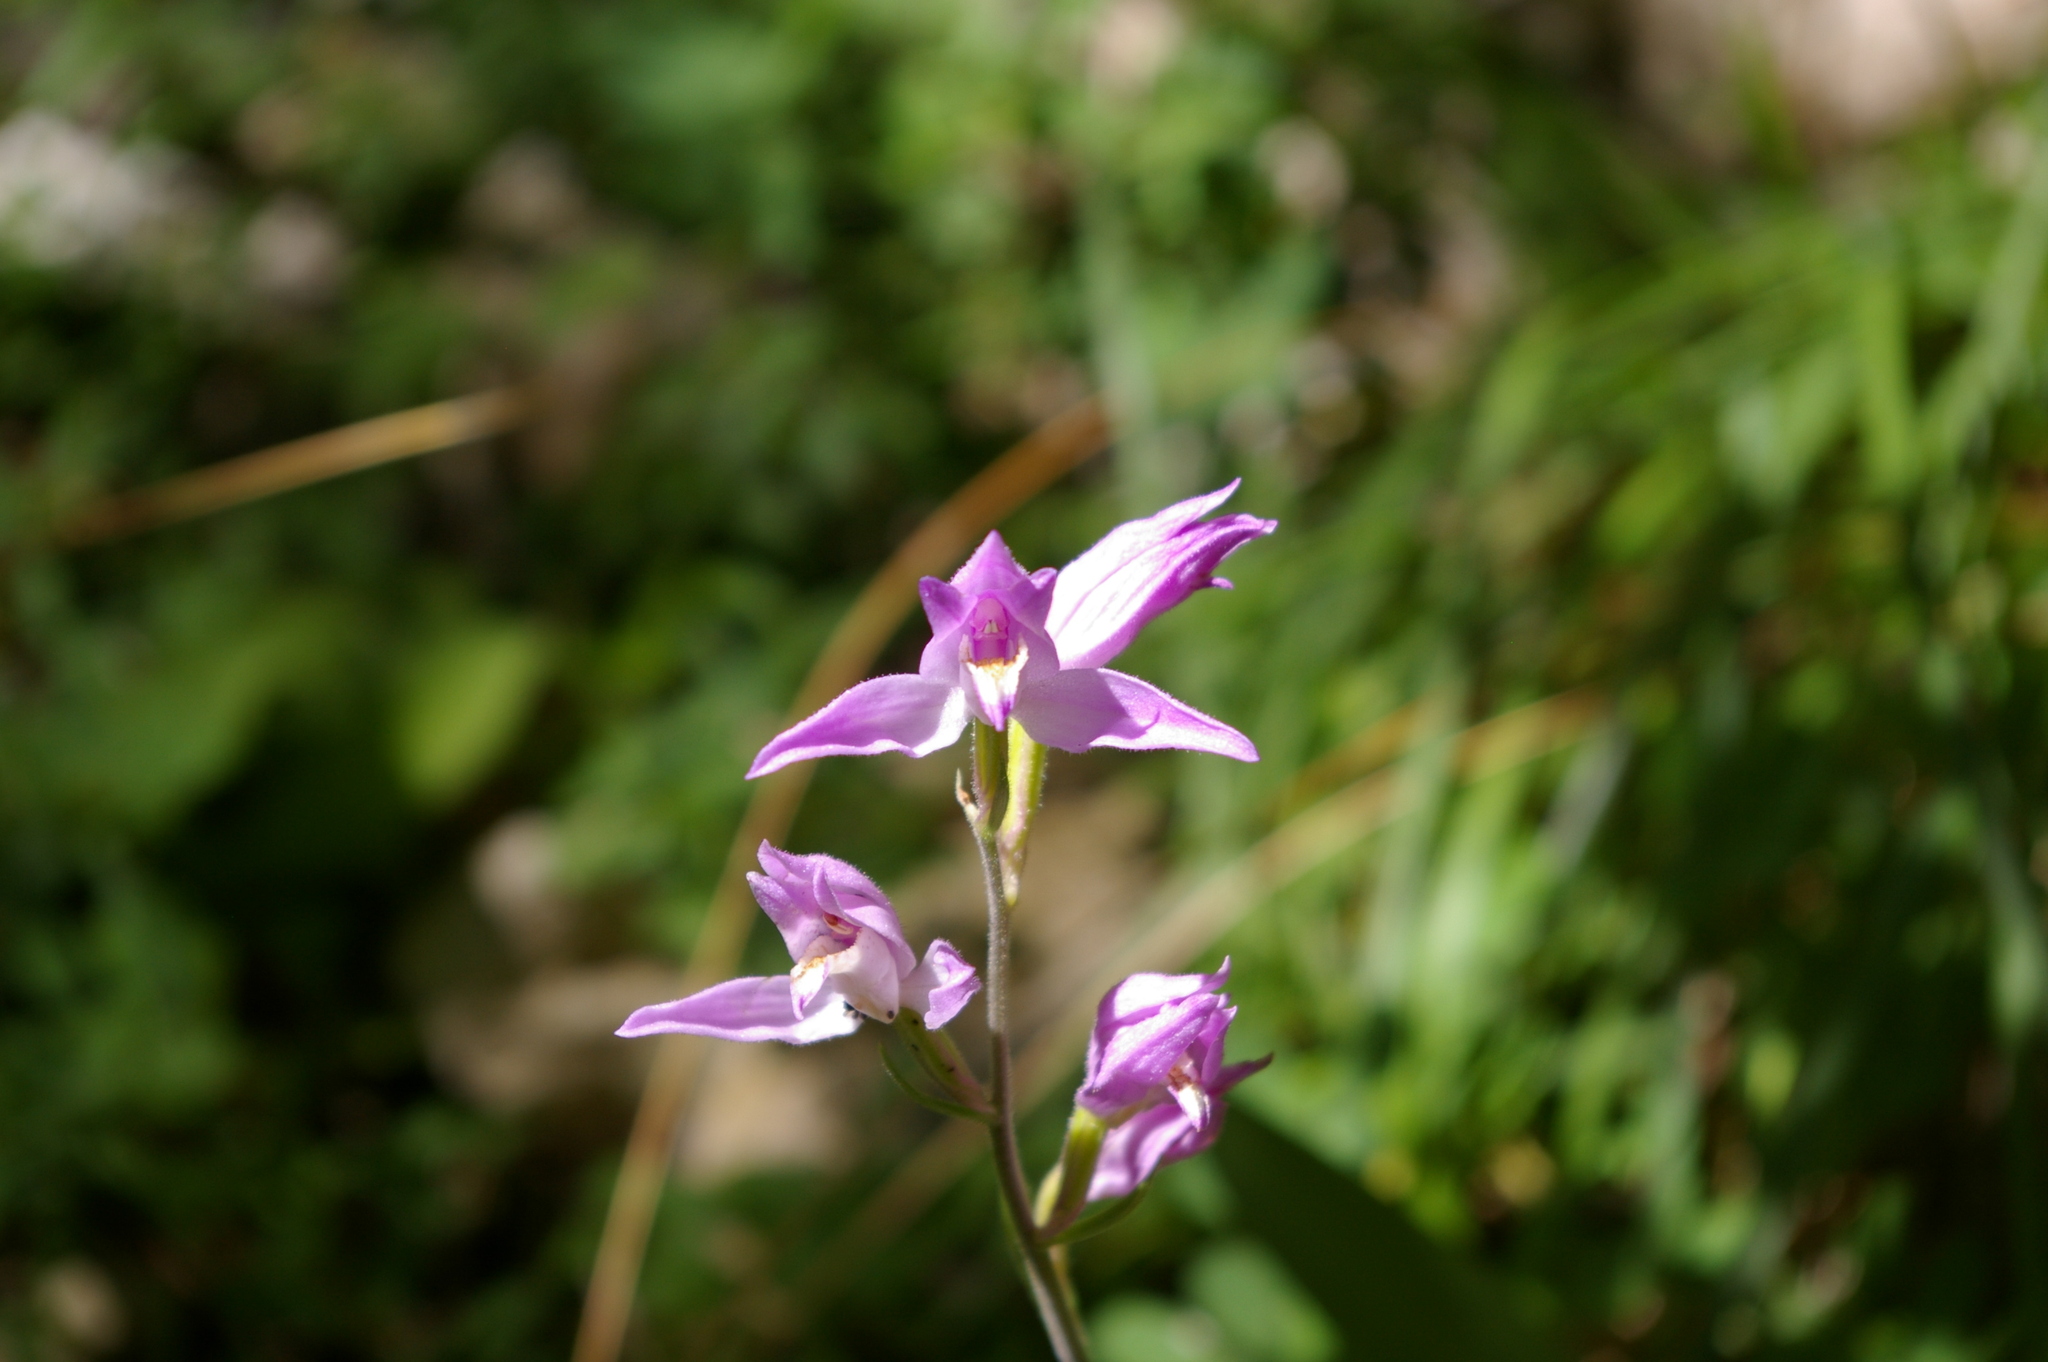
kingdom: Plantae
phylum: Tracheophyta
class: Liliopsida
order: Asparagales
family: Orchidaceae
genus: Cephalanthera
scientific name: Cephalanthera rubra
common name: Red helleborine
